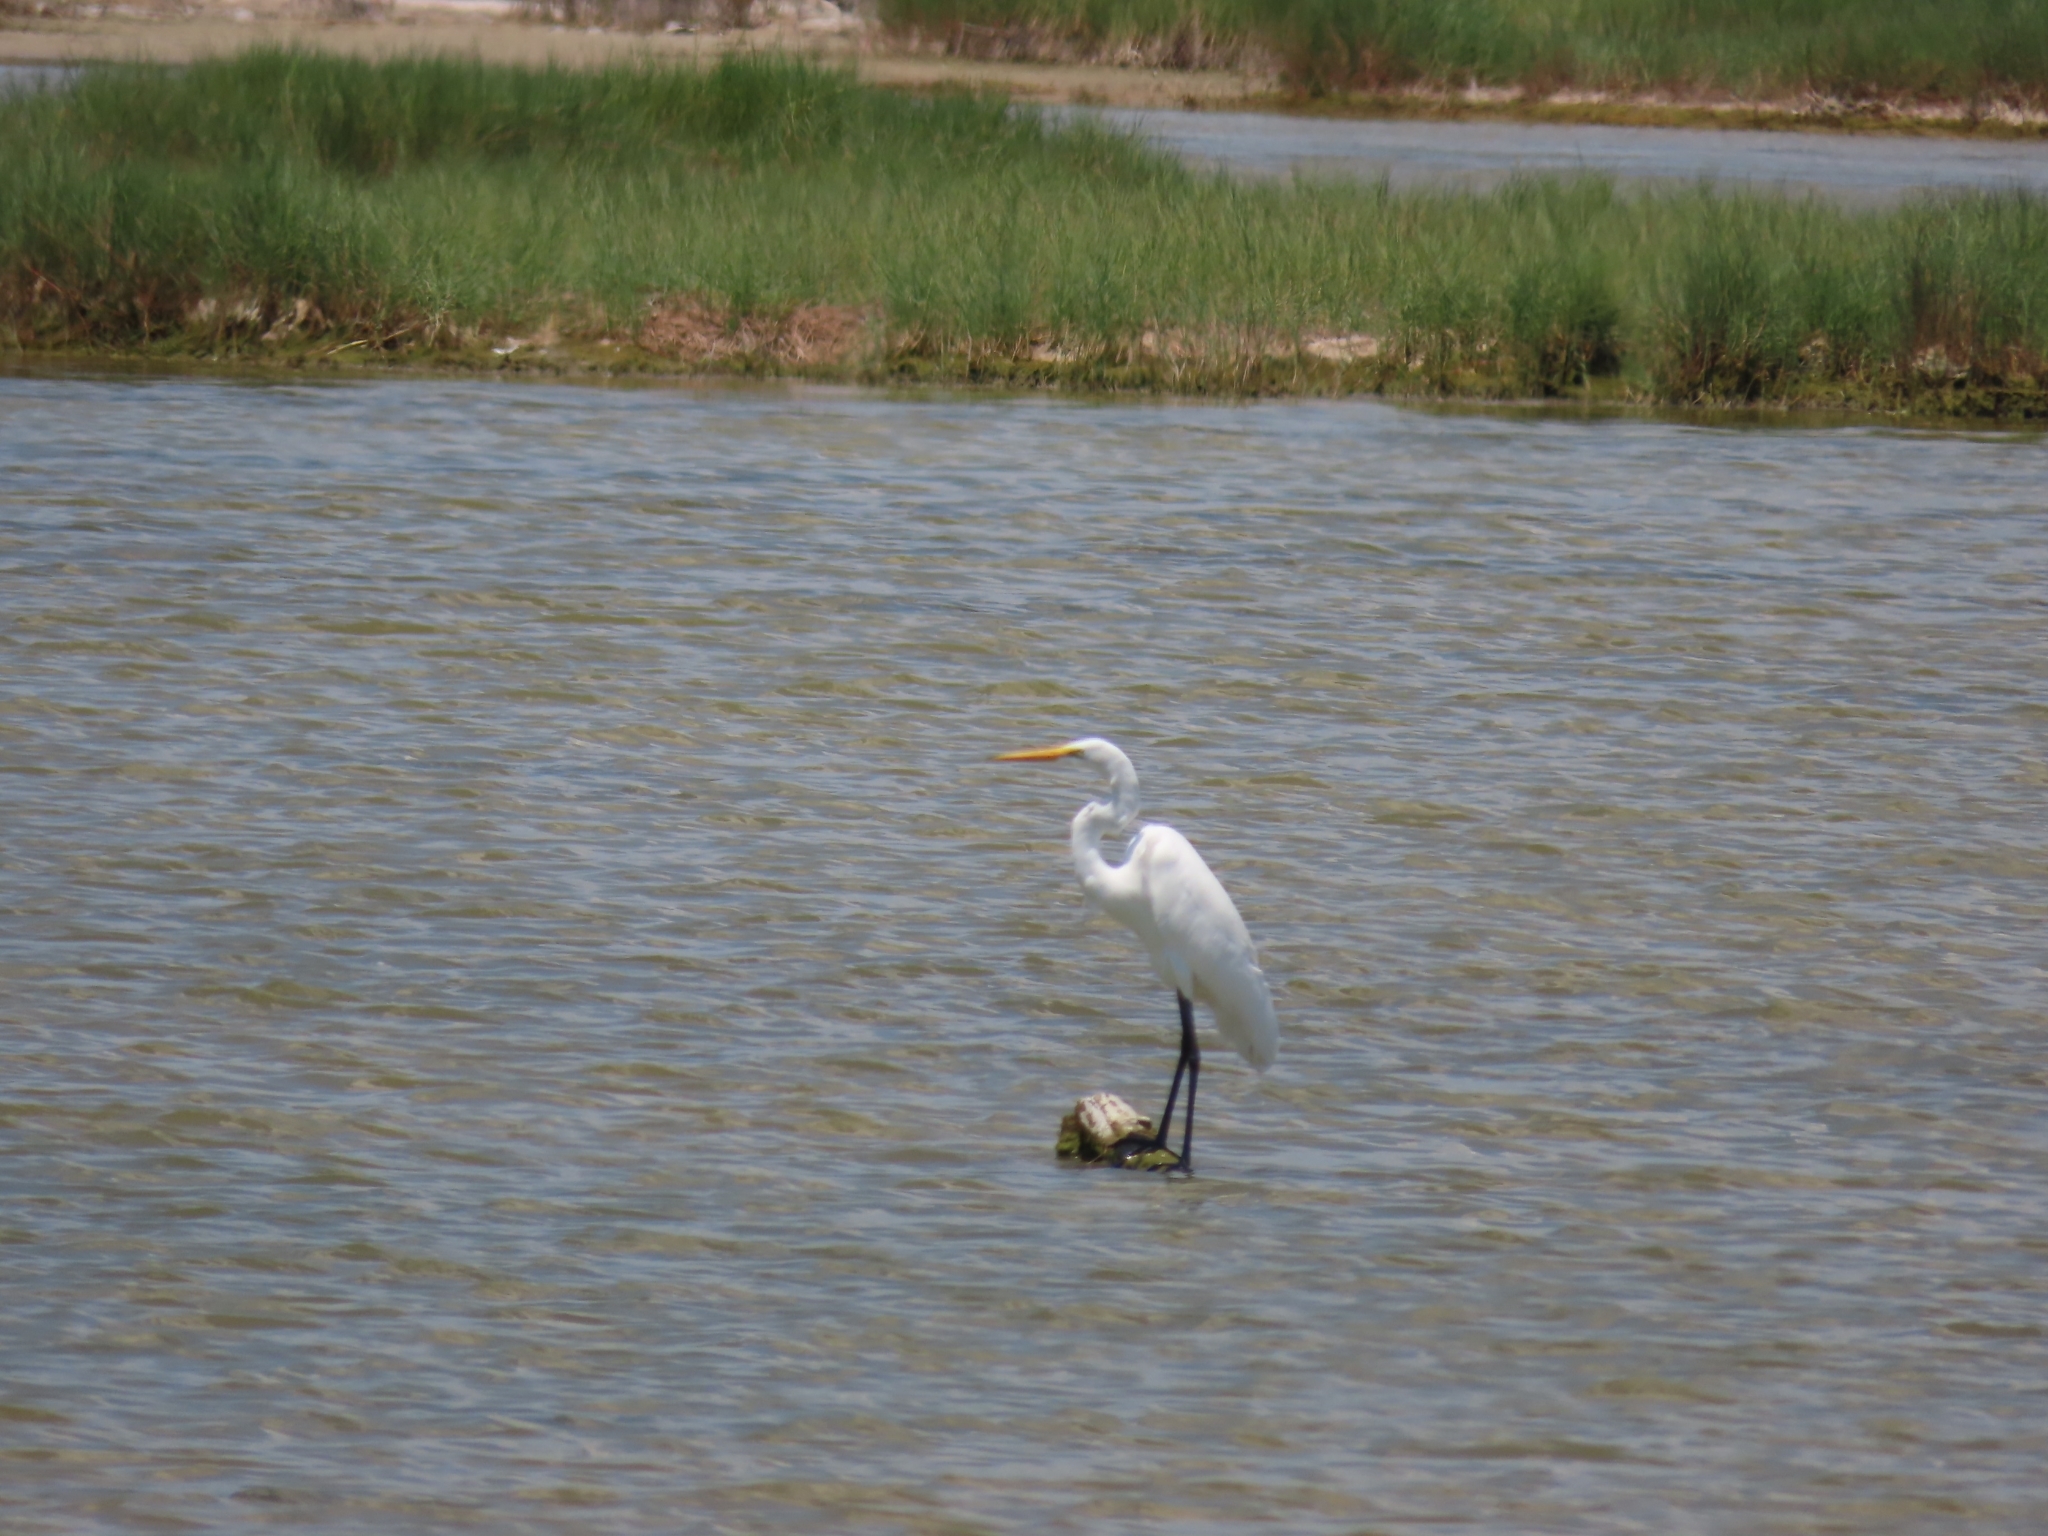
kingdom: Animalia
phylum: Chordata
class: Aves
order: Pelecaniformes
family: Ardeidae
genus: Ardea
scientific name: Ardea alba
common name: Great egret
